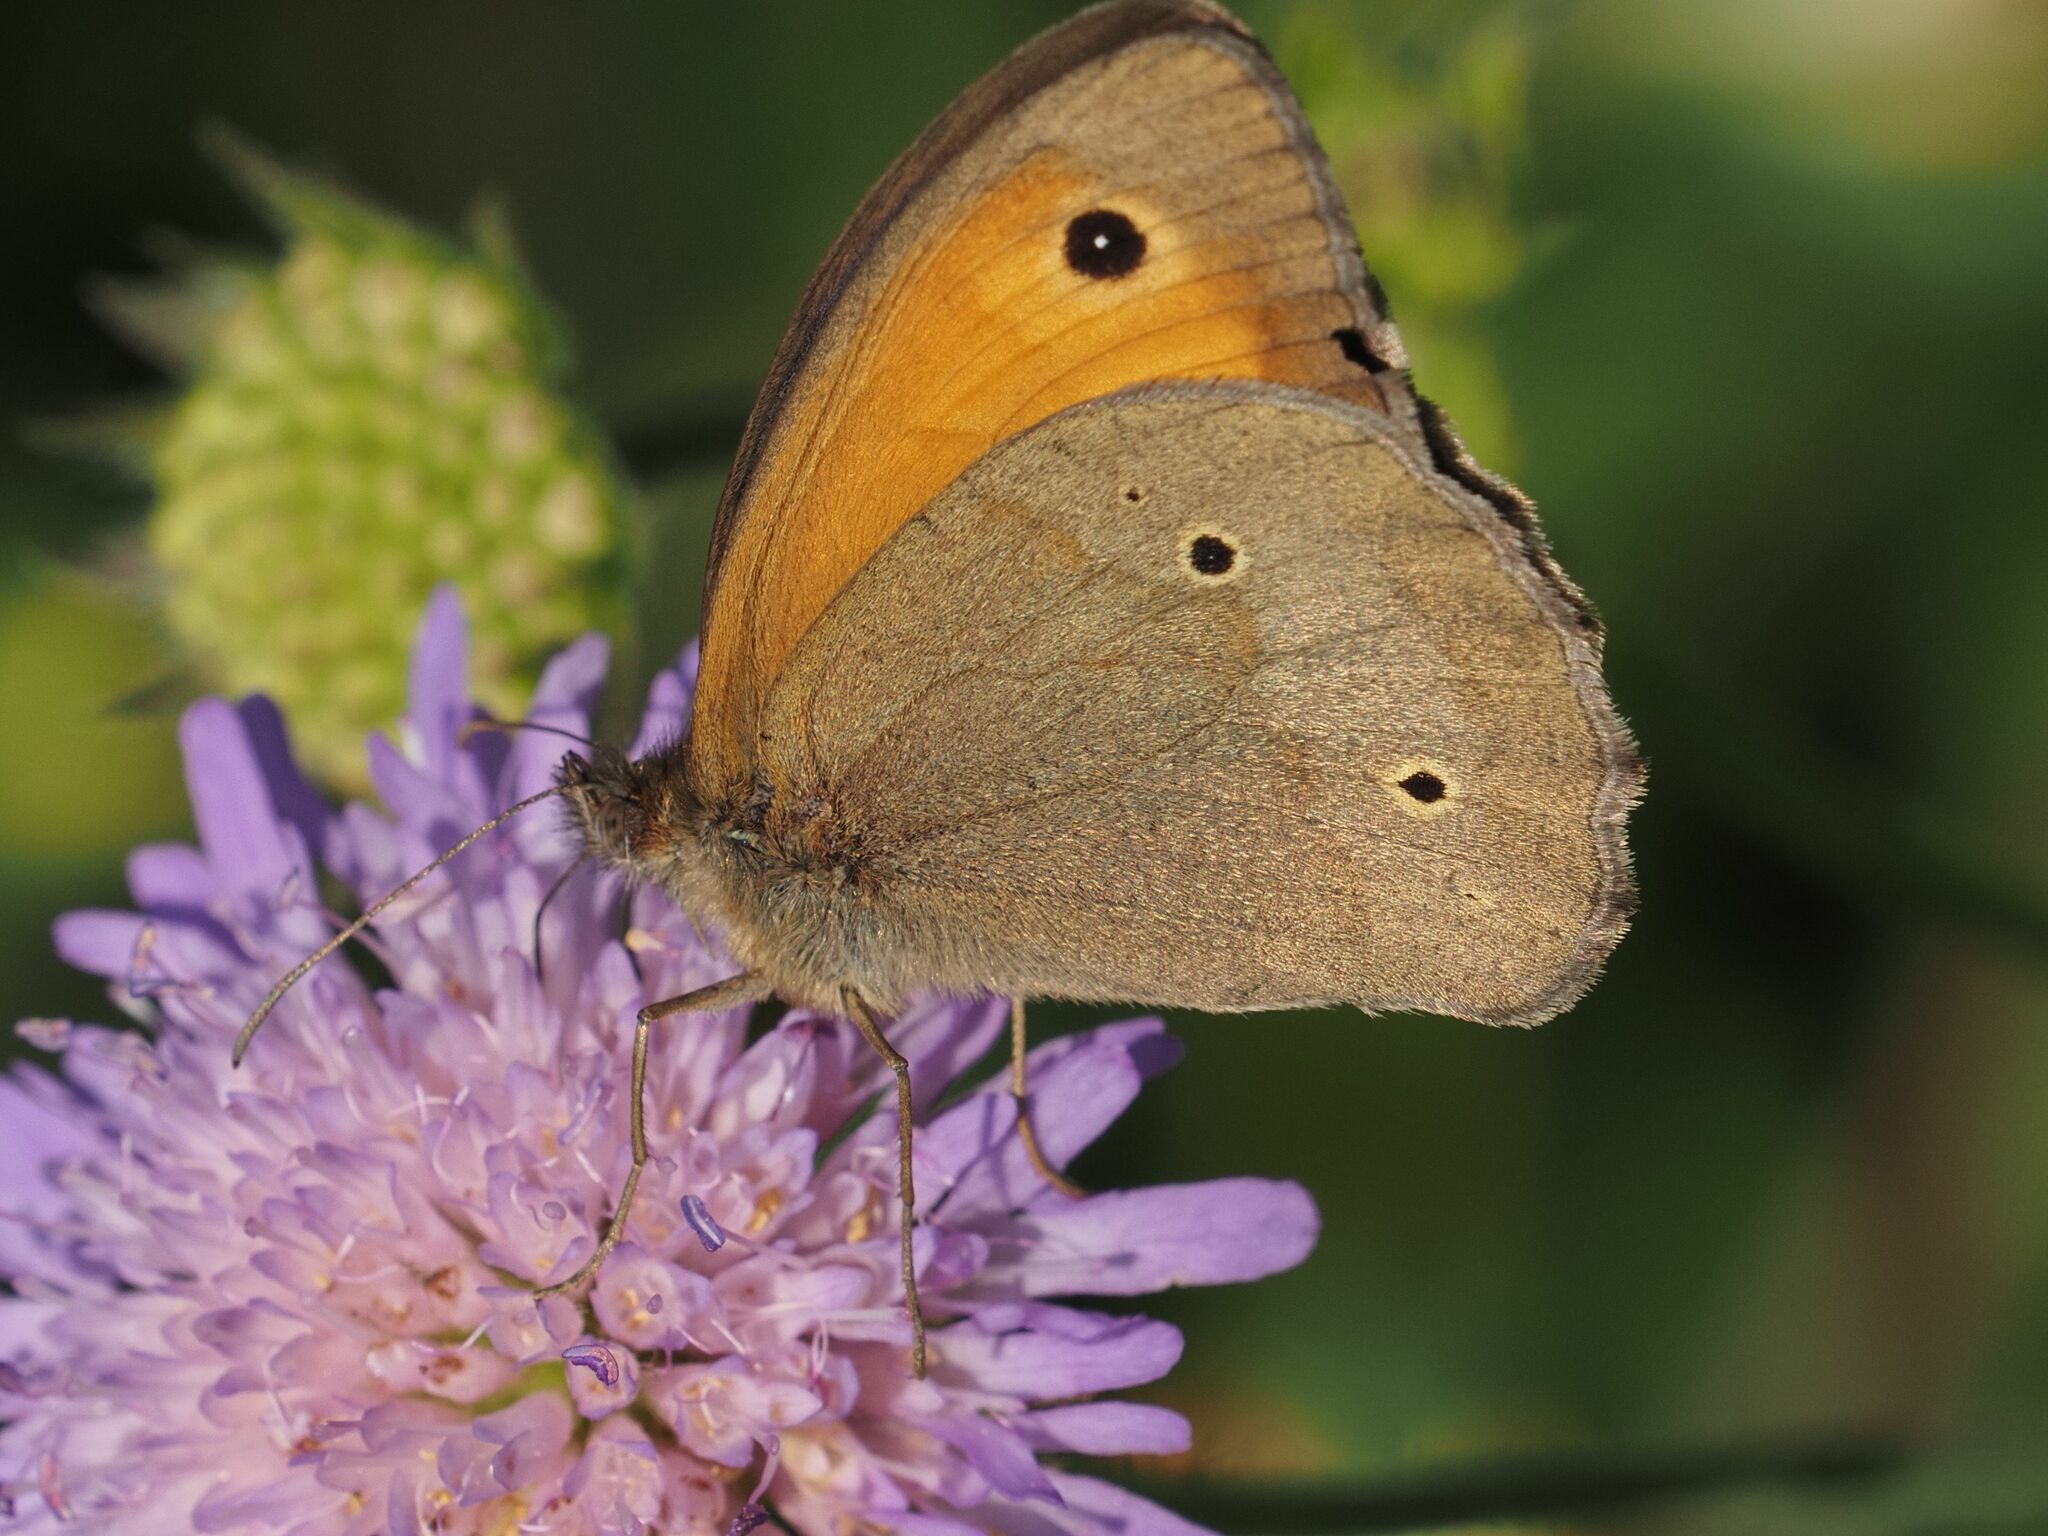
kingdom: Animalia
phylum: Arthropoda
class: Insecta
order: Lepidoptera
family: Nymphalidae
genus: Maniola
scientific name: Maniola jurtina
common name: Meadow brown
